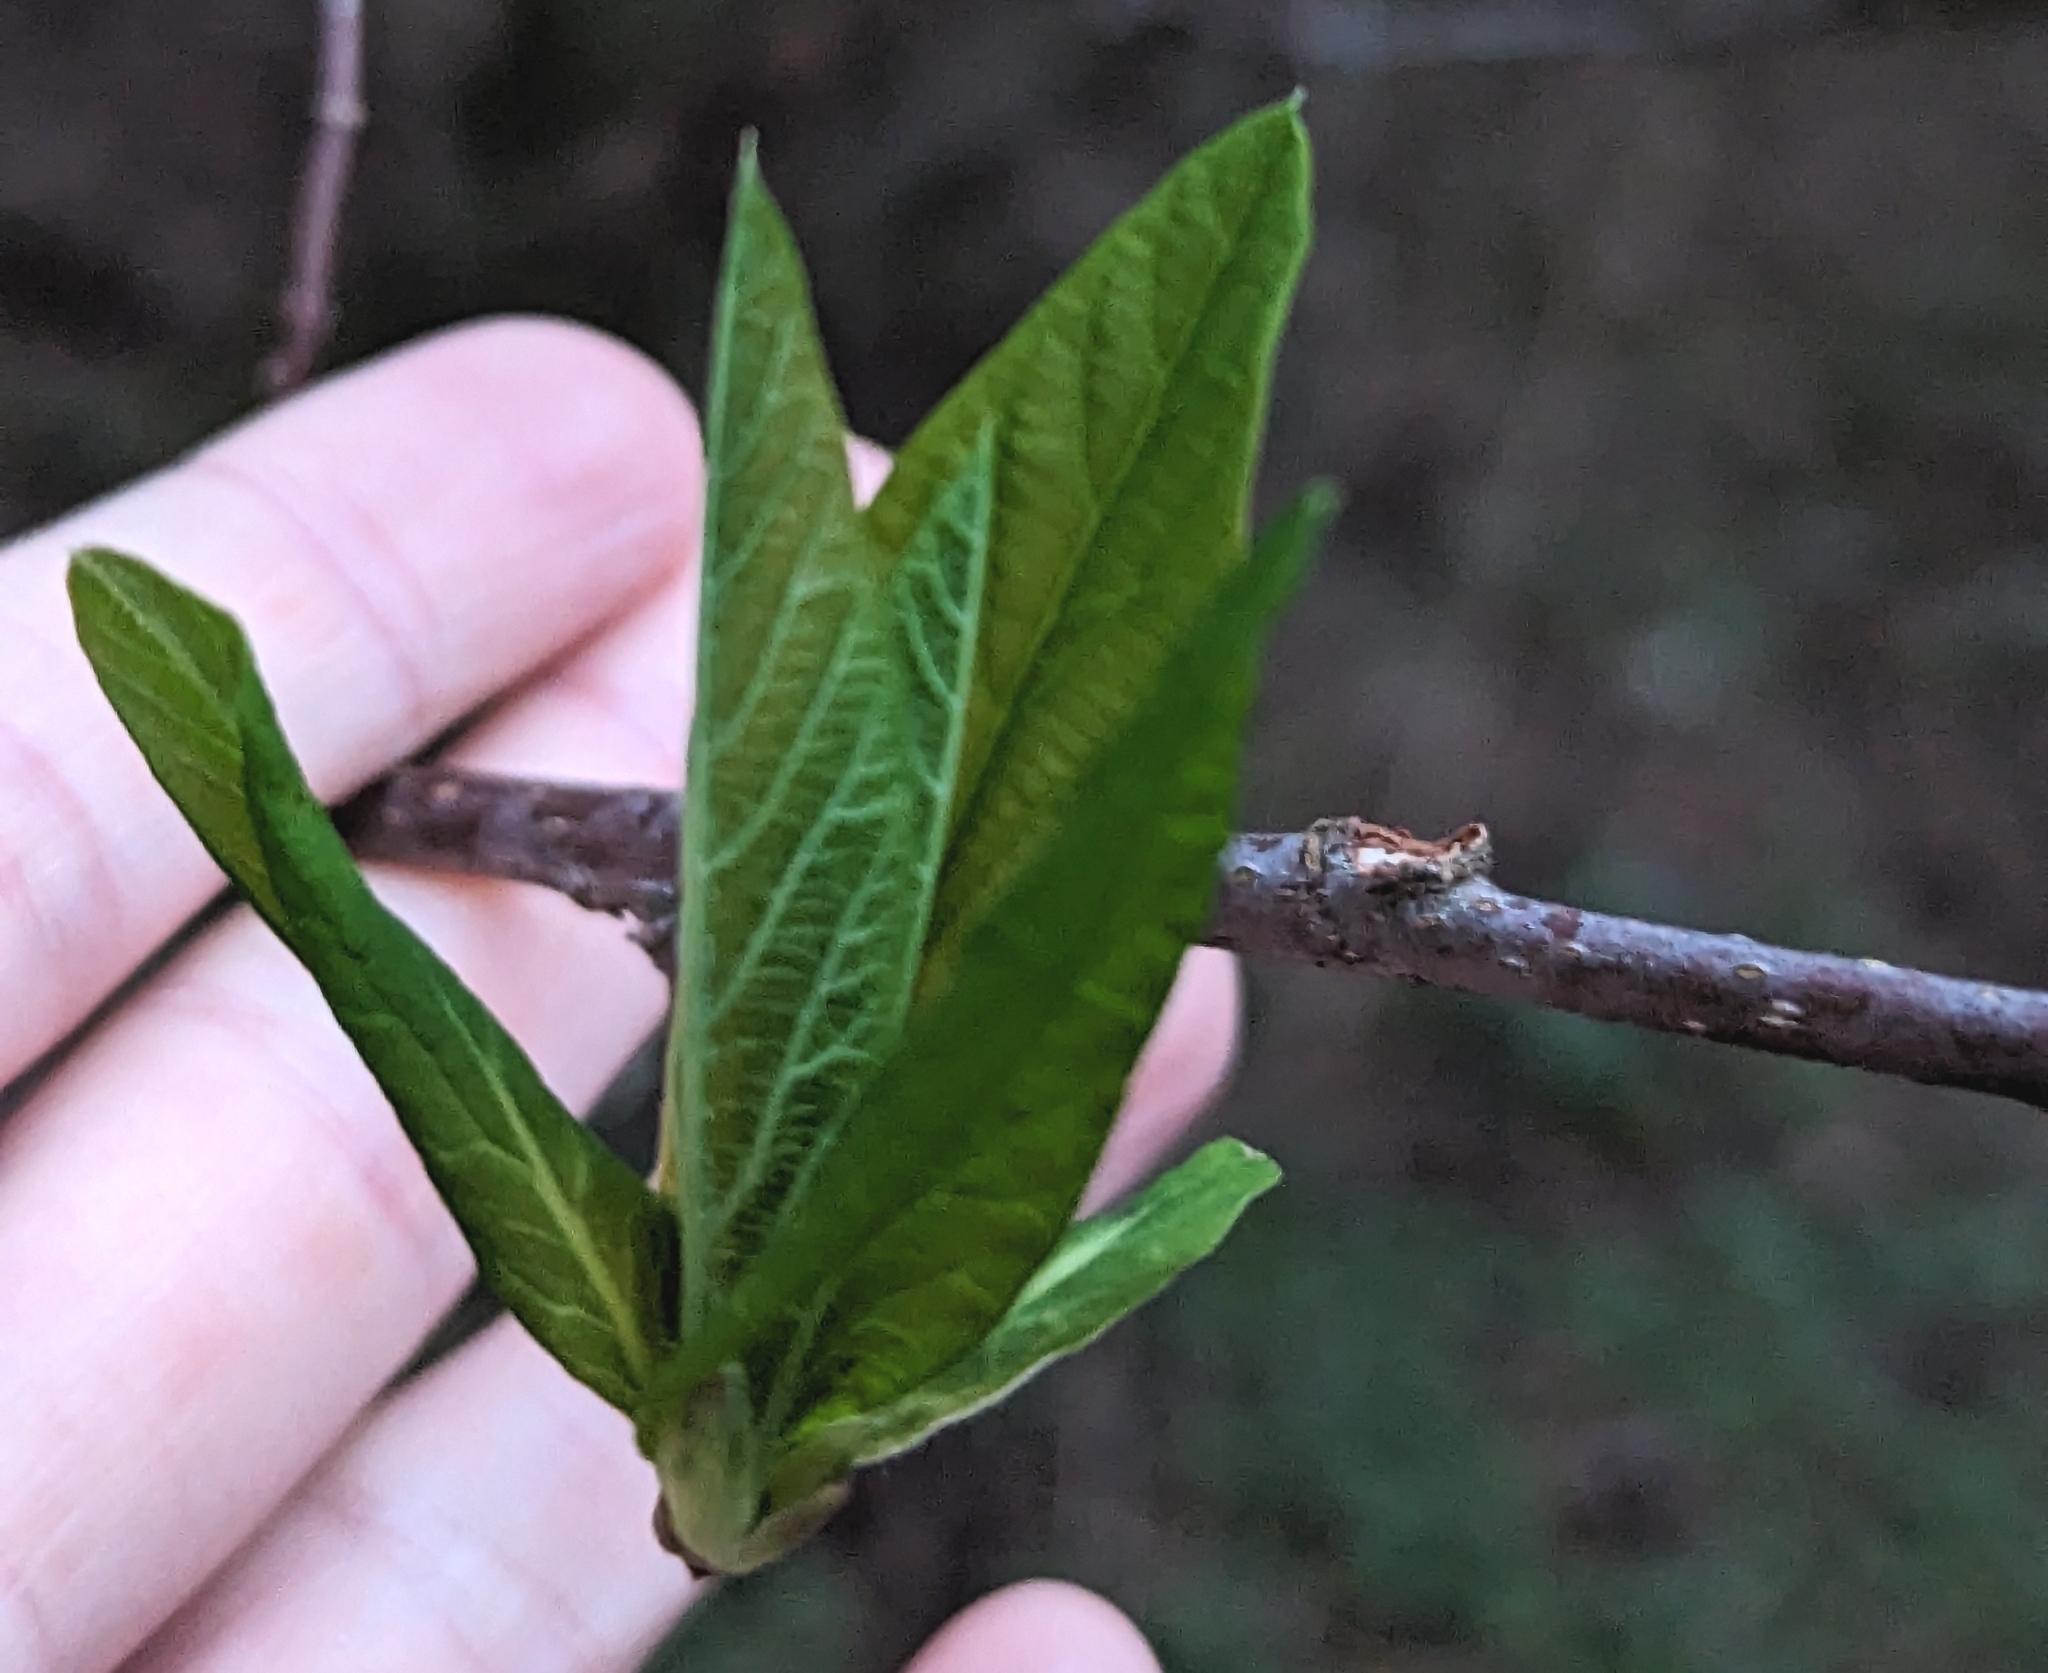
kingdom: Plantae
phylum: Tracheophyta
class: Magnoliopsida
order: Rosales
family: Rosaceae
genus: Oemleria
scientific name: Oemleria cerasiformis
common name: Osoberry
